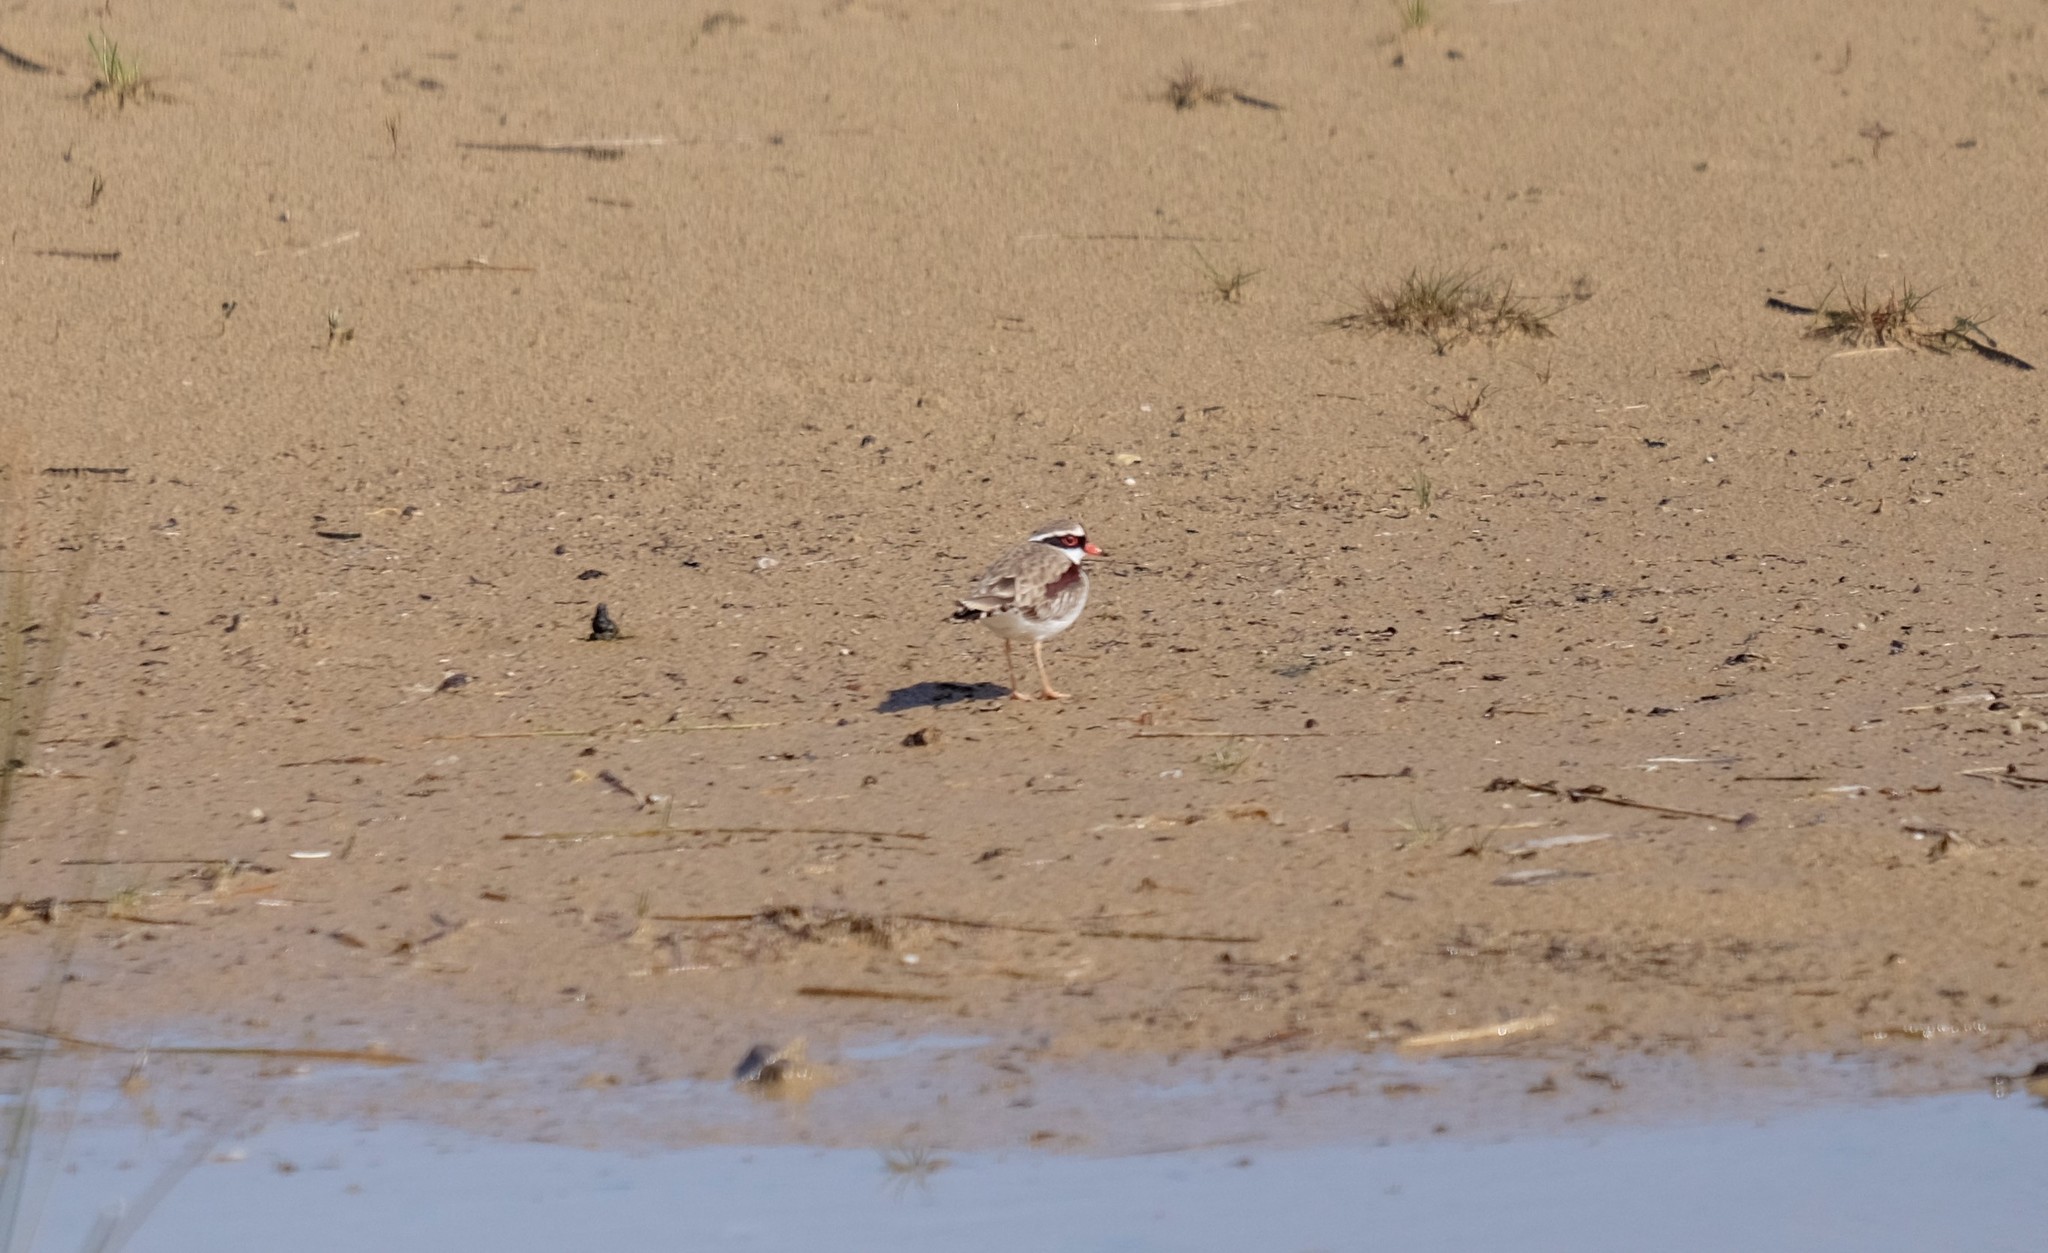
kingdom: Animalia
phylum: Chordata
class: Aves
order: Charadriiformes
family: Charadriidae
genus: Elseyornis
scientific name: Elseyornis melanops
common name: Black-fronted dotterel
